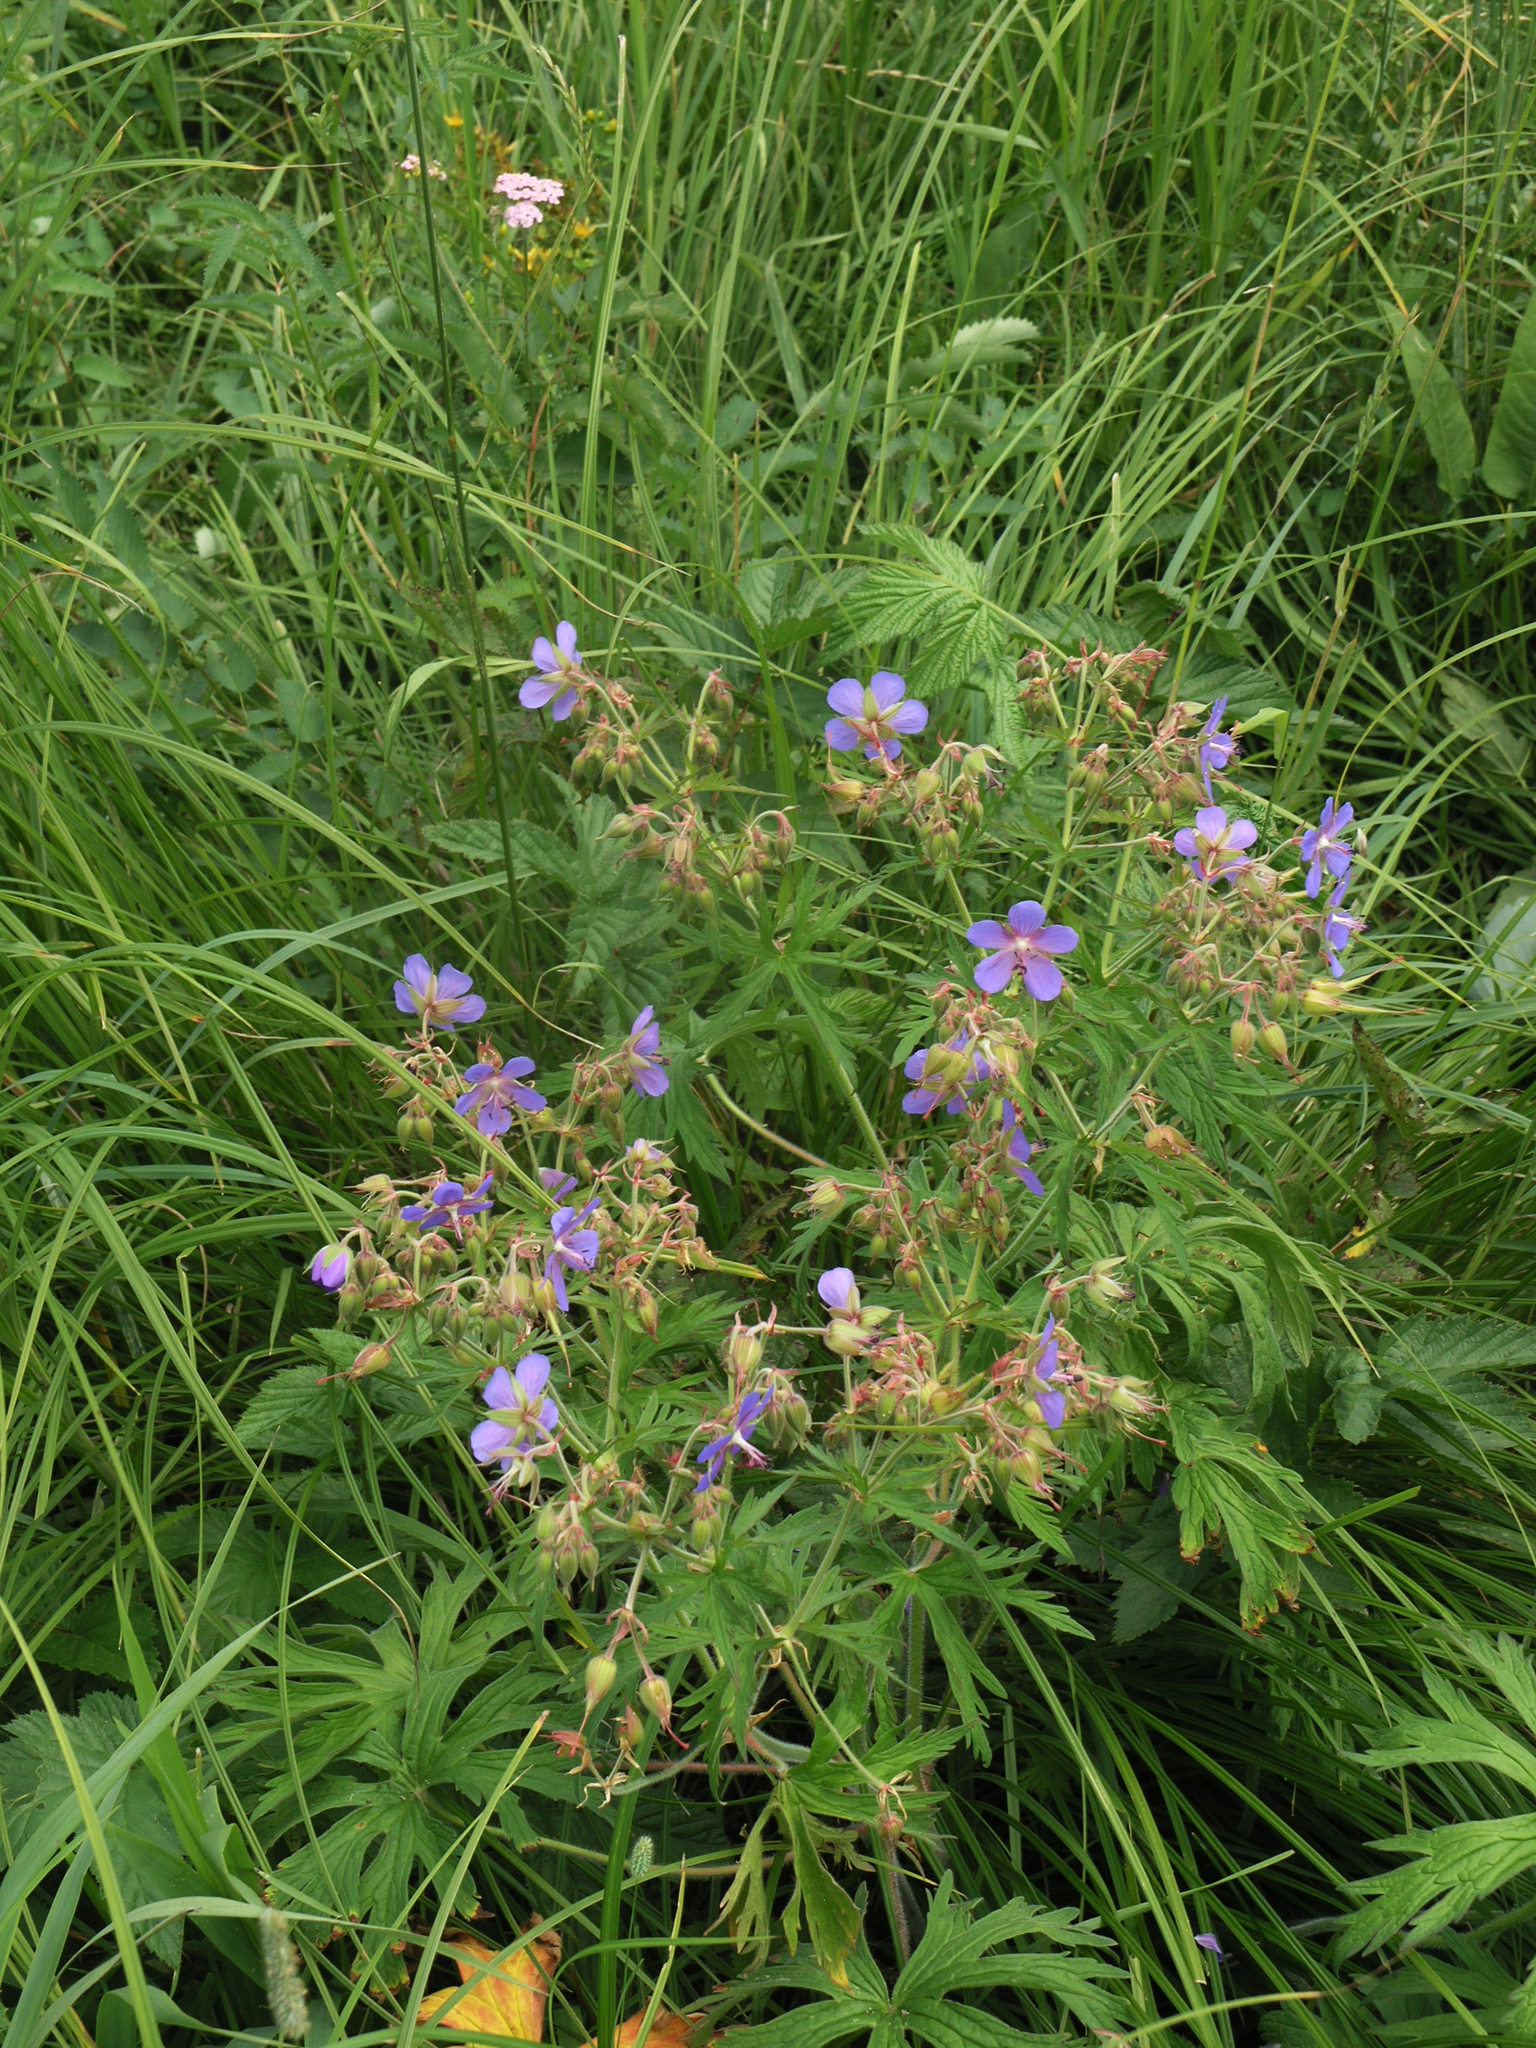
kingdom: Plantae
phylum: Tracheophyta
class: Magnoliopsida
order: Geraniales
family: Geraniaceae
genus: Geranium
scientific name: Geranium pratense
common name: Meadow crane's-bill
